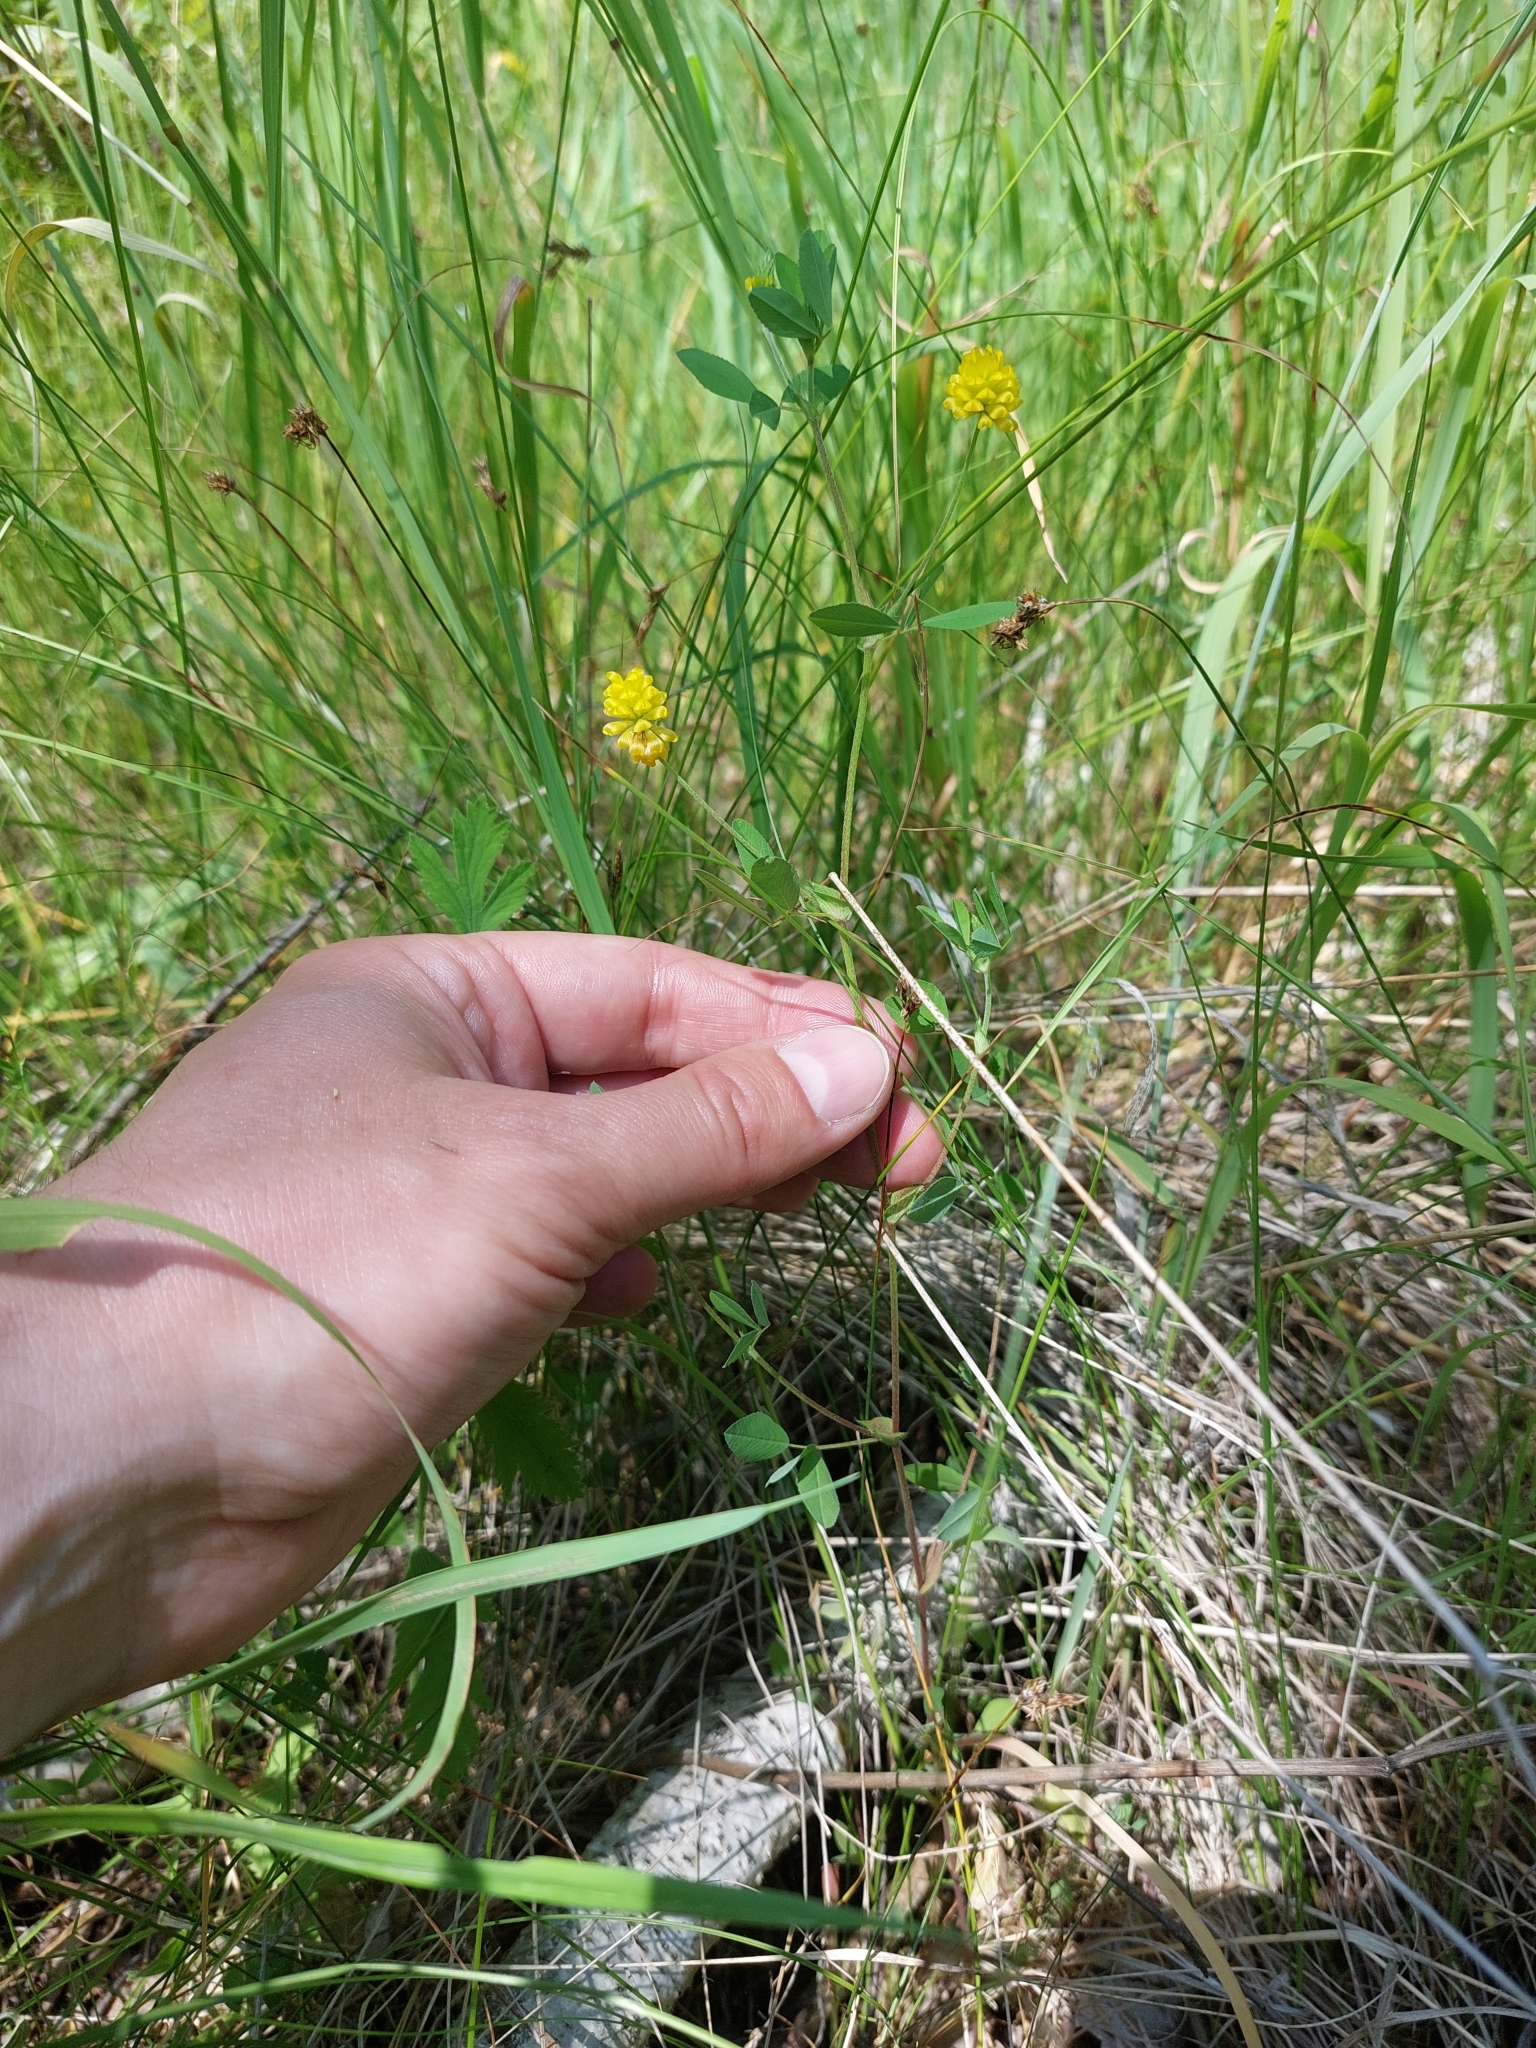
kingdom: Plantae
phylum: Tracheophyta
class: Magnoliopsida
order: Fabales
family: Fabaceae
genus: Trifolium
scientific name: Trifolium campestre
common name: Field clover
